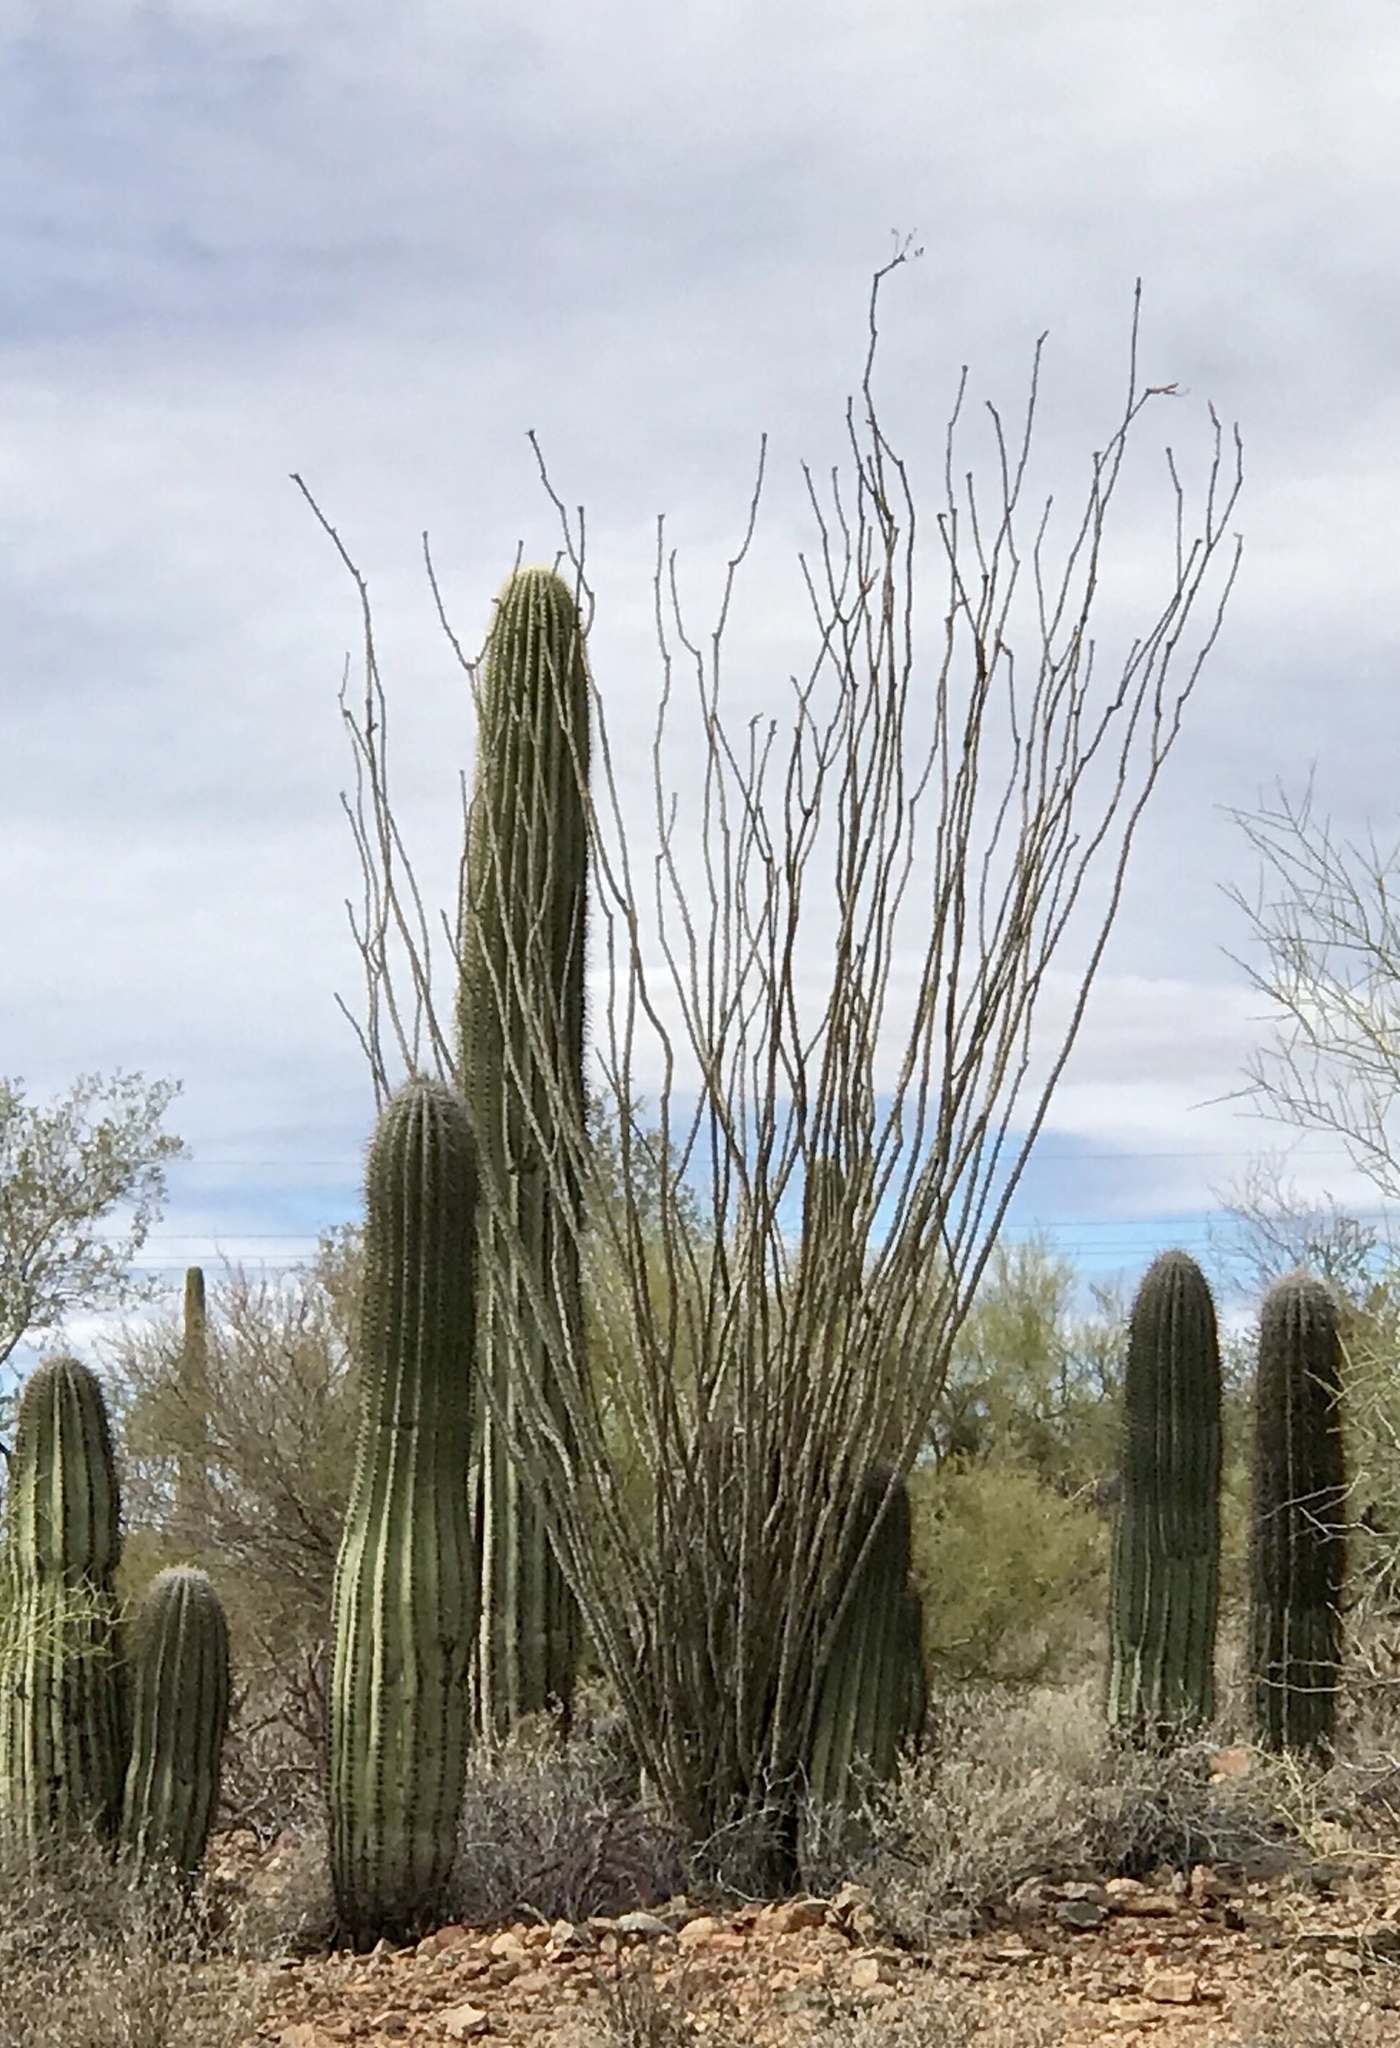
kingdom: Plantae
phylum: Tracheophyta
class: Magnoliopsida
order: Ericales
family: Fouquieriaceae
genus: Fouquieria
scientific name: Fouquieria splendens
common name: Vine-cactus
